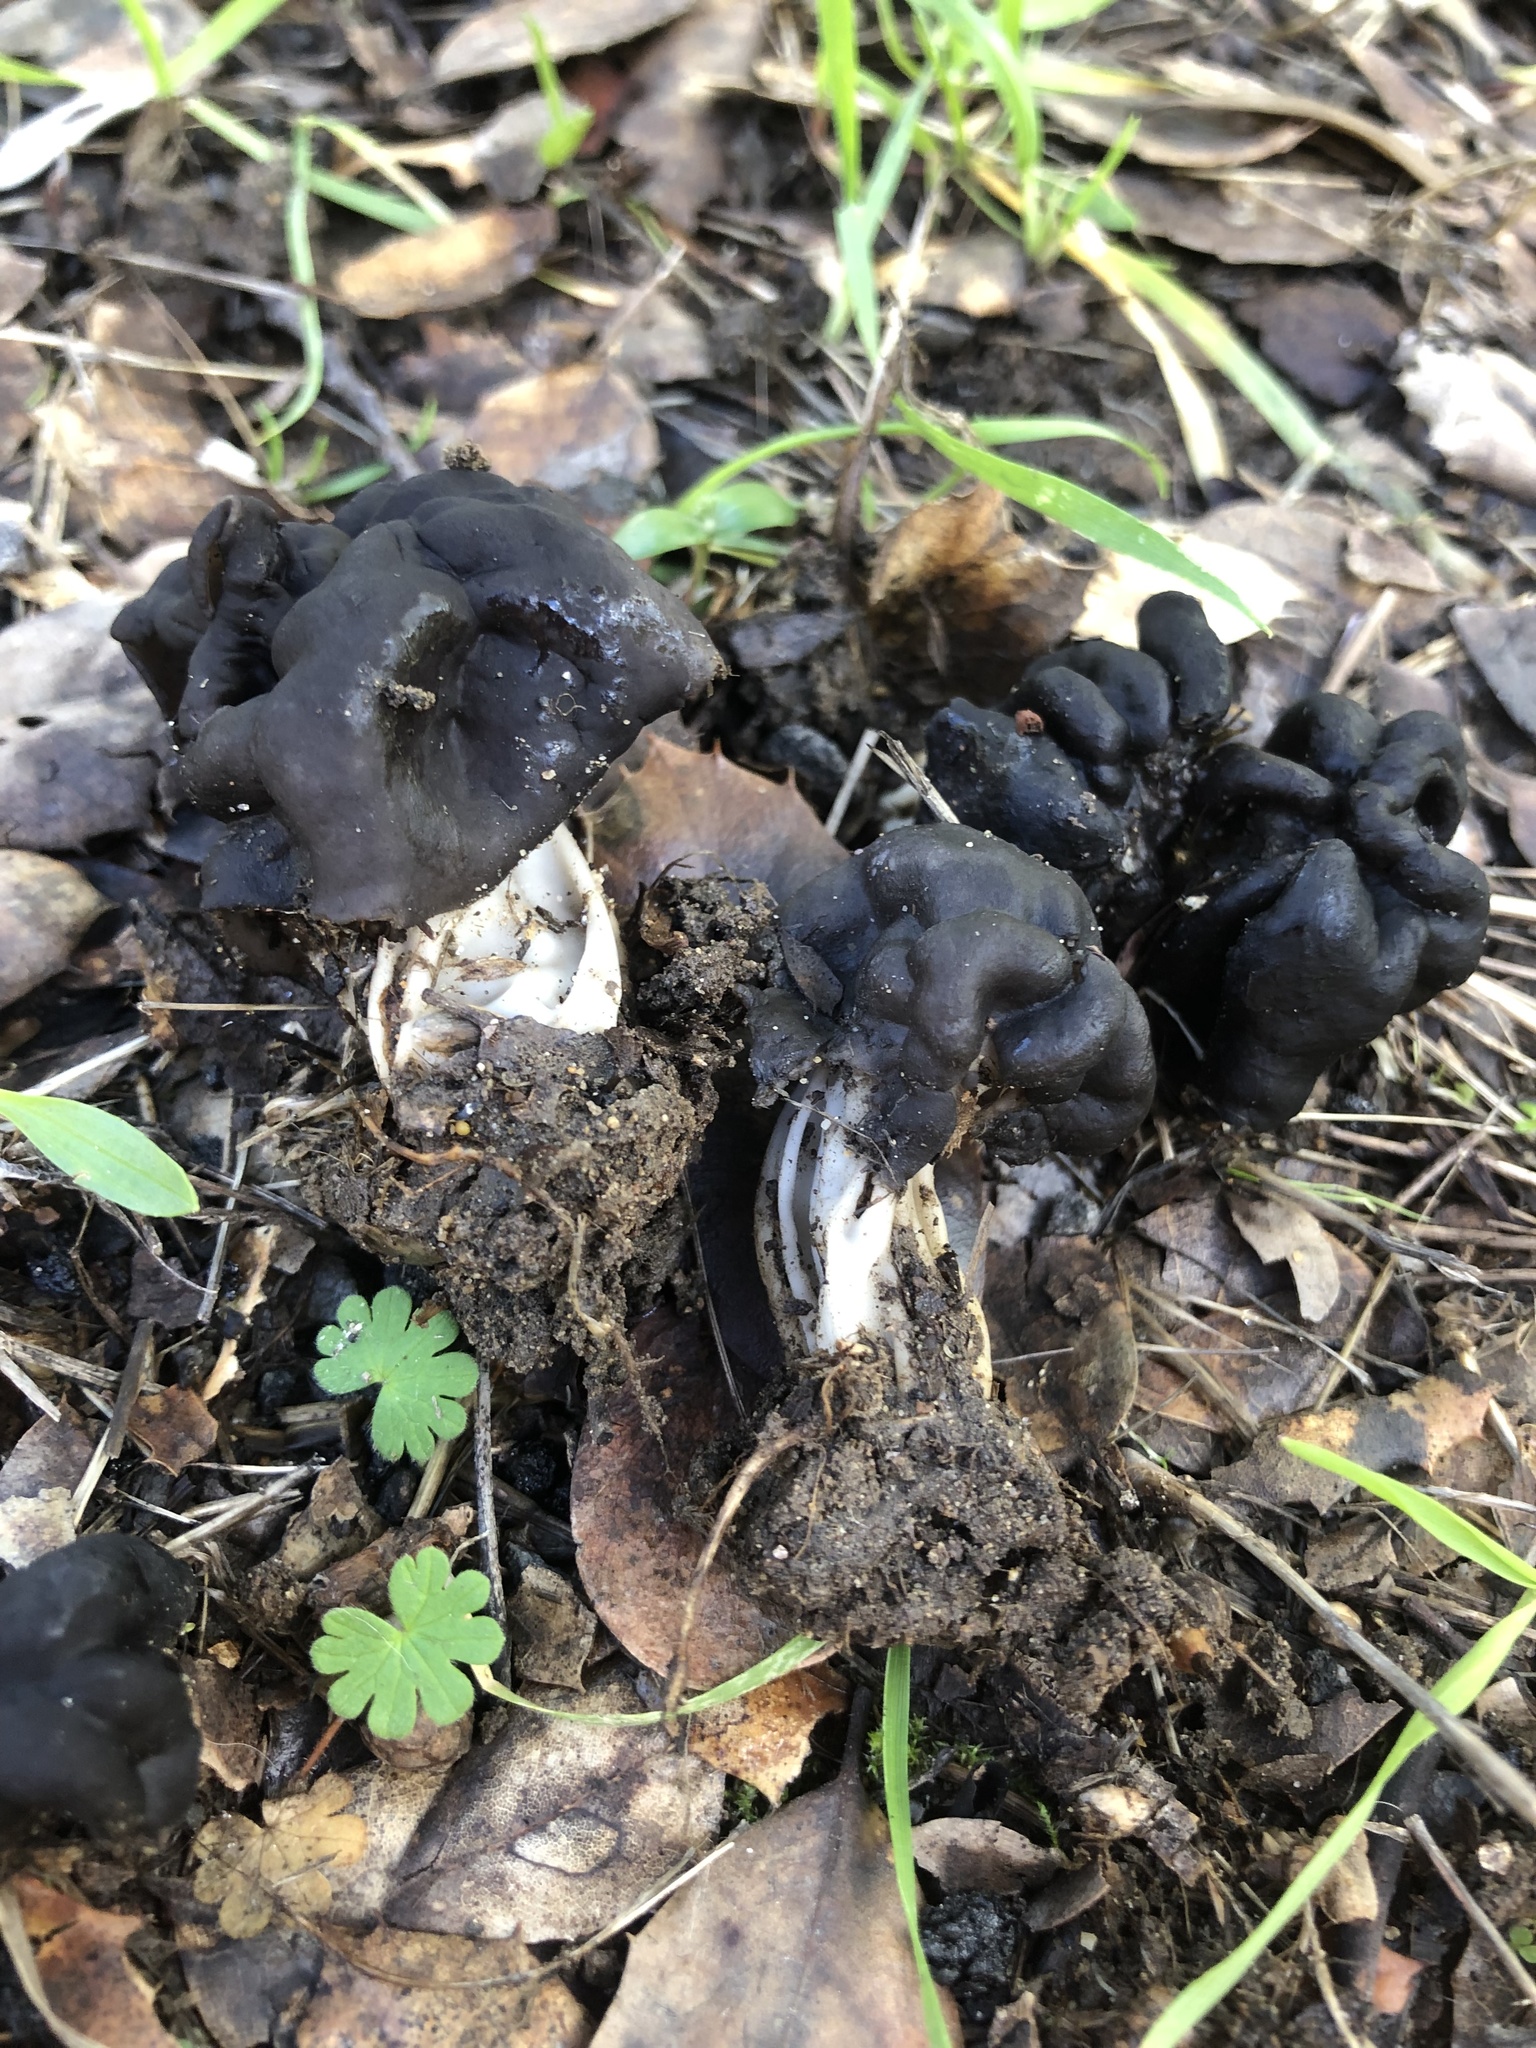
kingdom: Fungi
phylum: Ascomycota
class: Pezizomycetes
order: Pezizales
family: Helvellaceae
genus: Helvella
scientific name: Helvella dryophila
